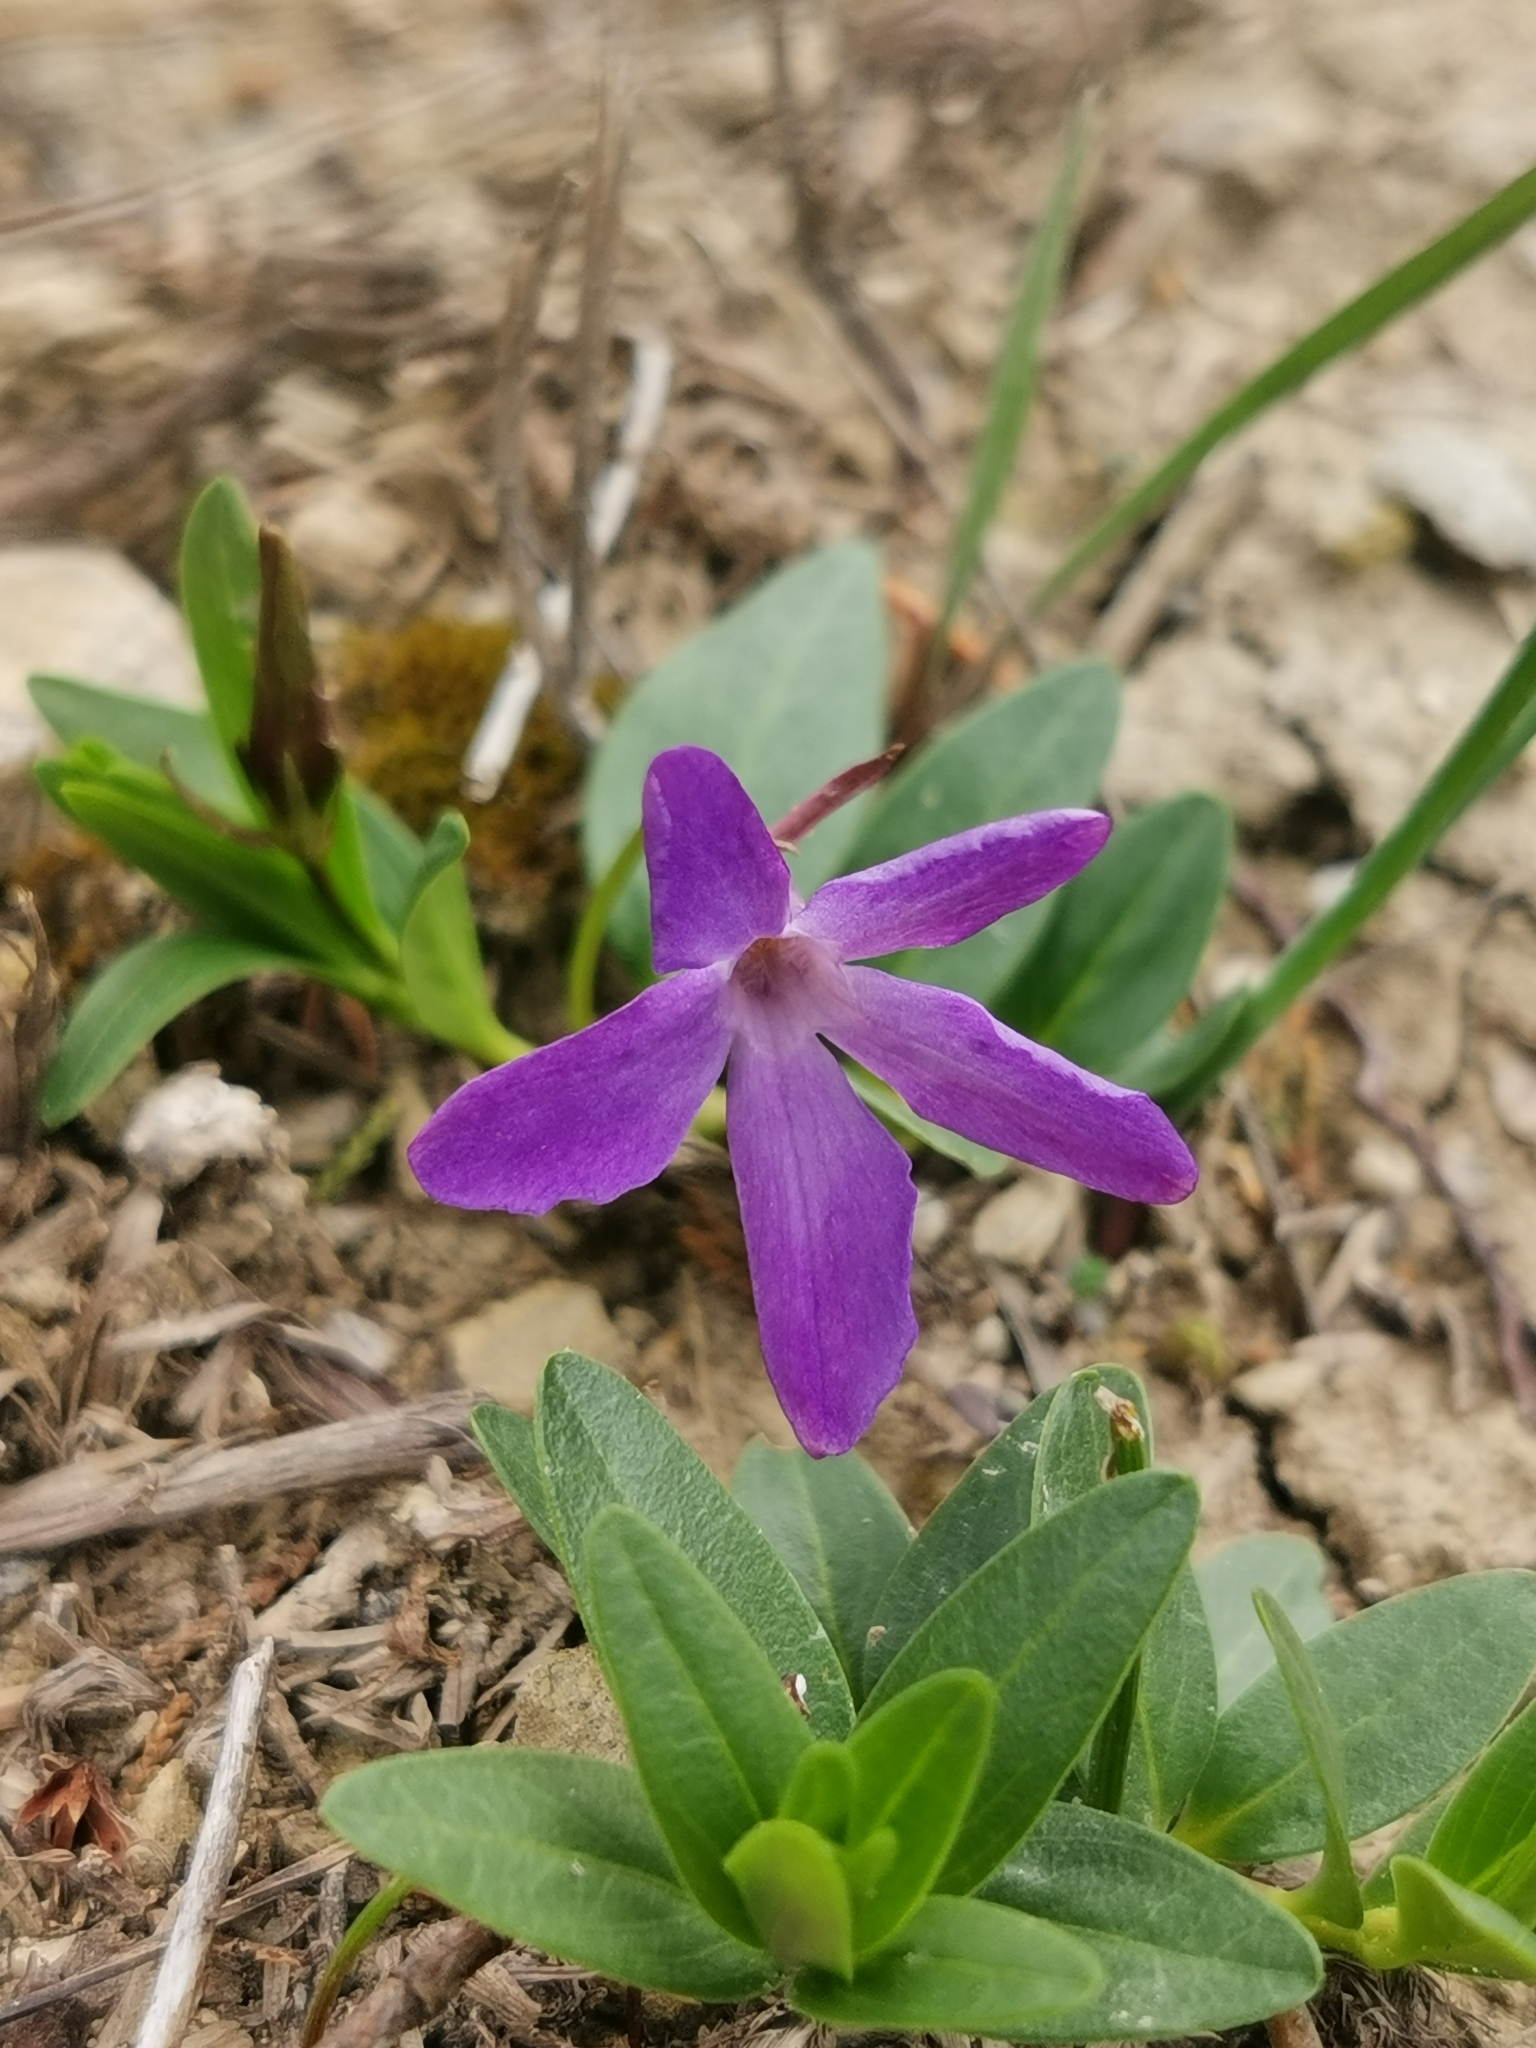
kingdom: Plantae
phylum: Tracheophyta
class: Magnoliopsida
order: Gentianales
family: Apocynaceae
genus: Vinca
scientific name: Vinca herbacea
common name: Herbaceous periwinkle
